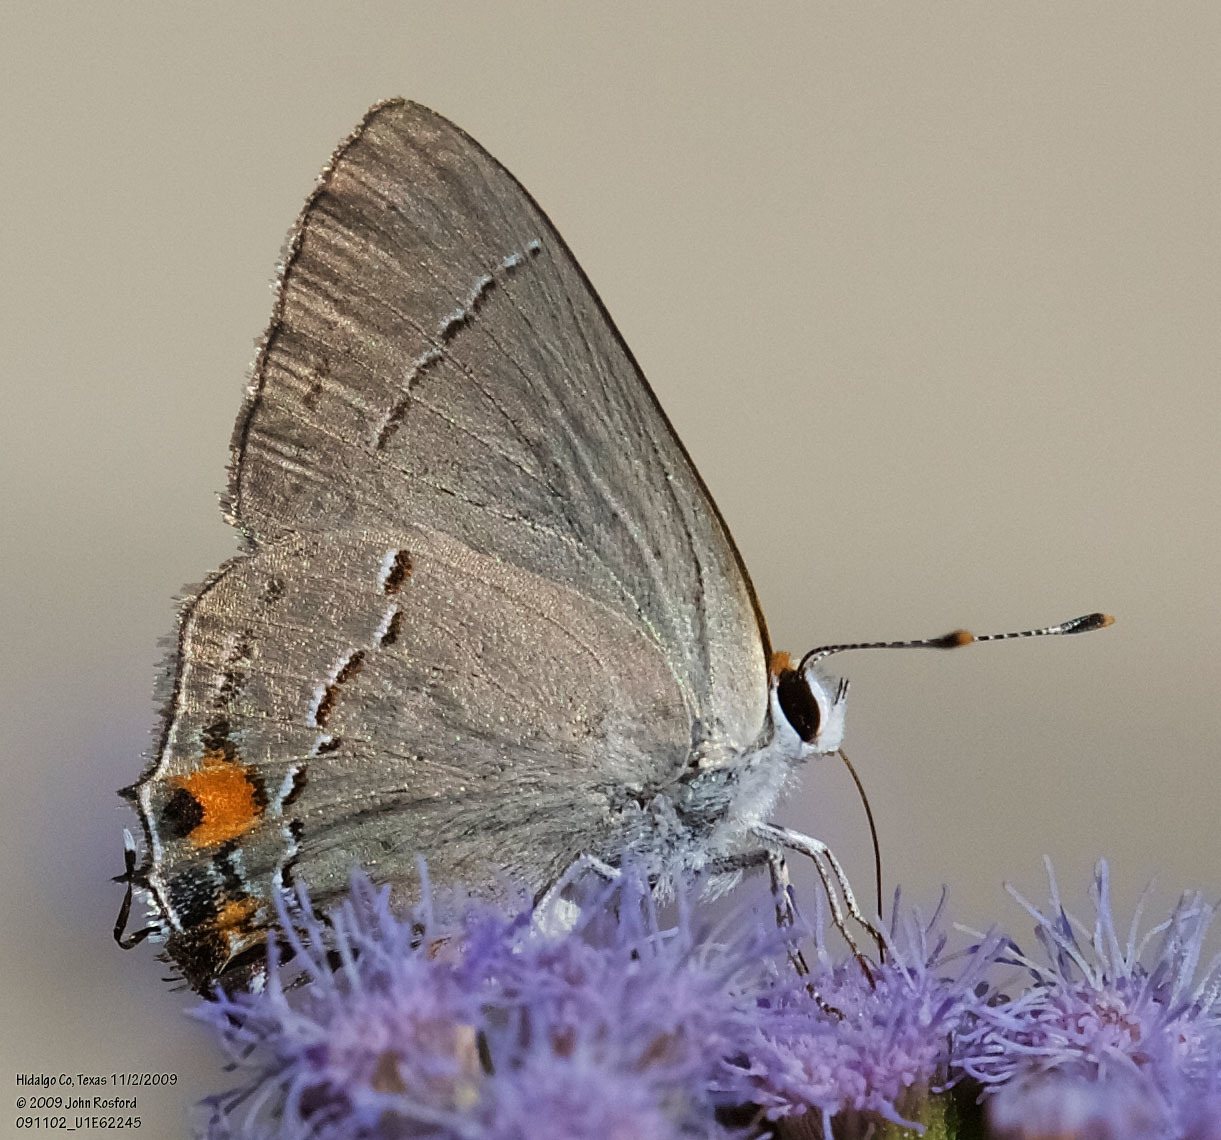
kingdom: Animalia
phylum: Arthropoda
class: Insecta
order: Lepidoptera
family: Lycaenidae
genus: Strymon
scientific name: Strymon melinus
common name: Gray hairstreak
